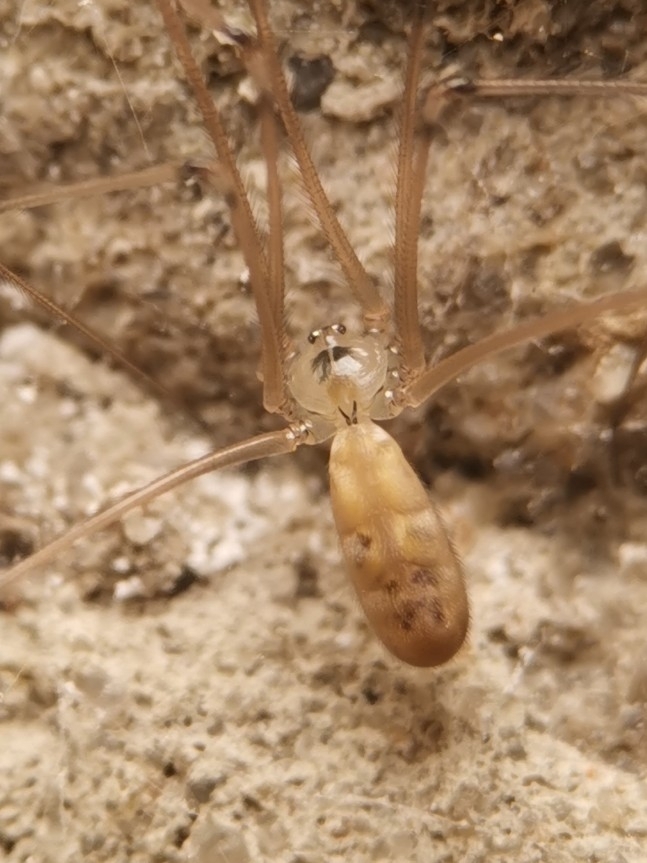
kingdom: Animalia
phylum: Arthropoda
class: Arachnida
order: Araneae
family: Pholcidae
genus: Pholcus
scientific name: Pholcus phalangioides
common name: Longbodied cellar spider
